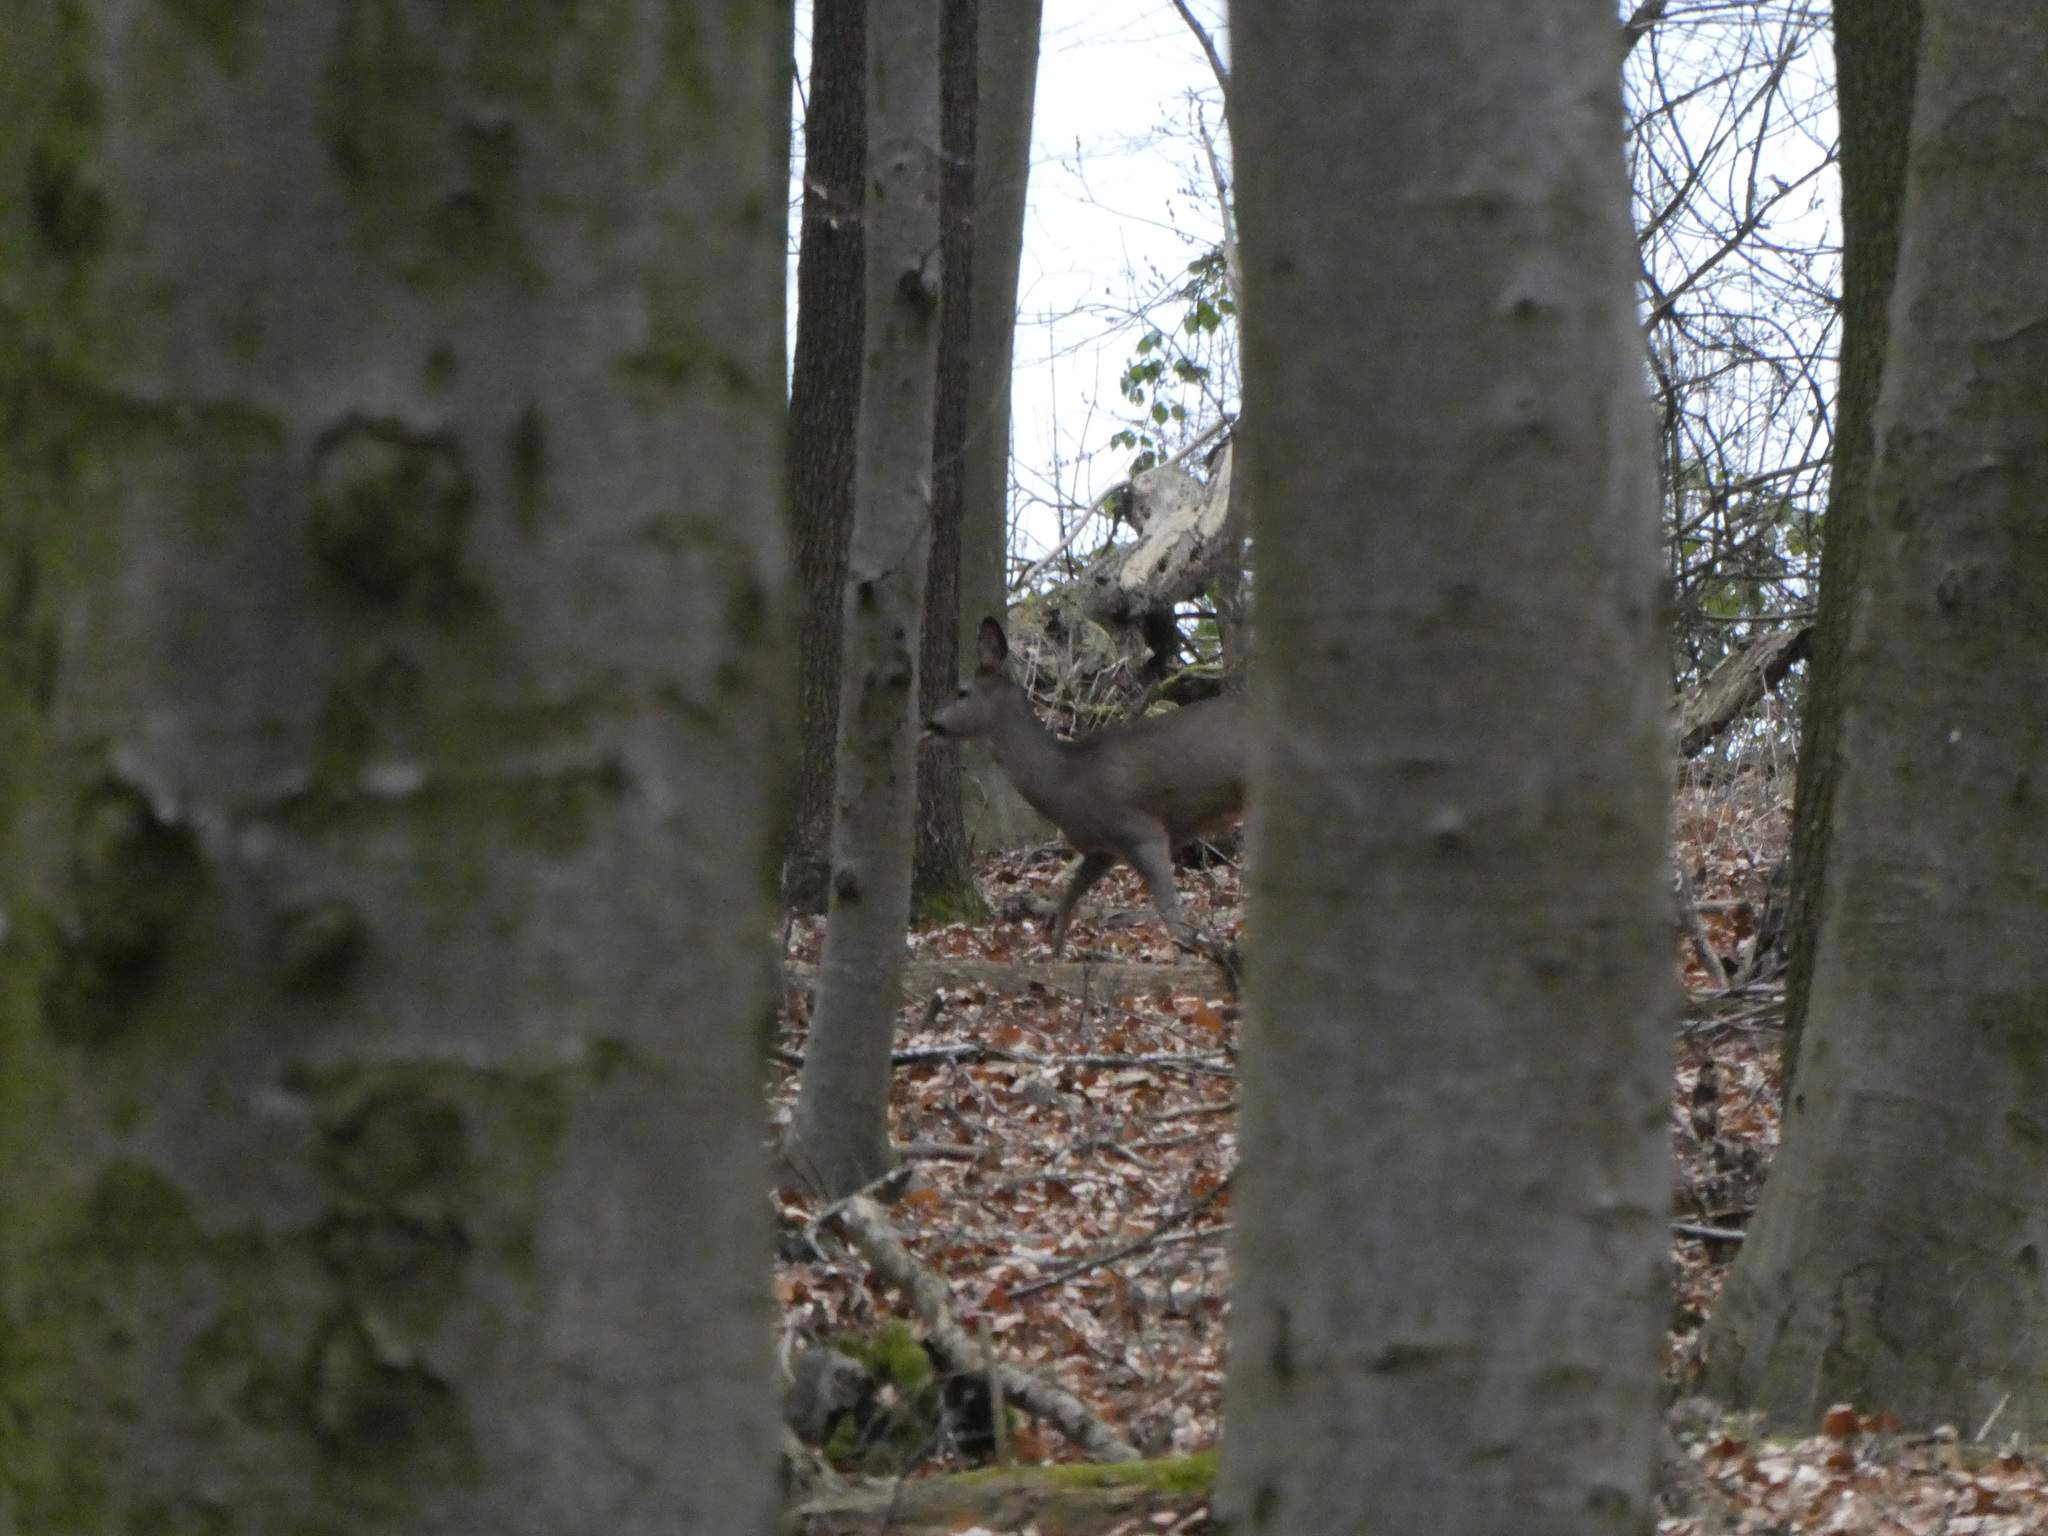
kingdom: Animalia
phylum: Chordata
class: Mammalia
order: Artiodactyla
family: Cervidae
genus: Capreolus
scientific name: Capreolus capreolus
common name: Western roe deer
